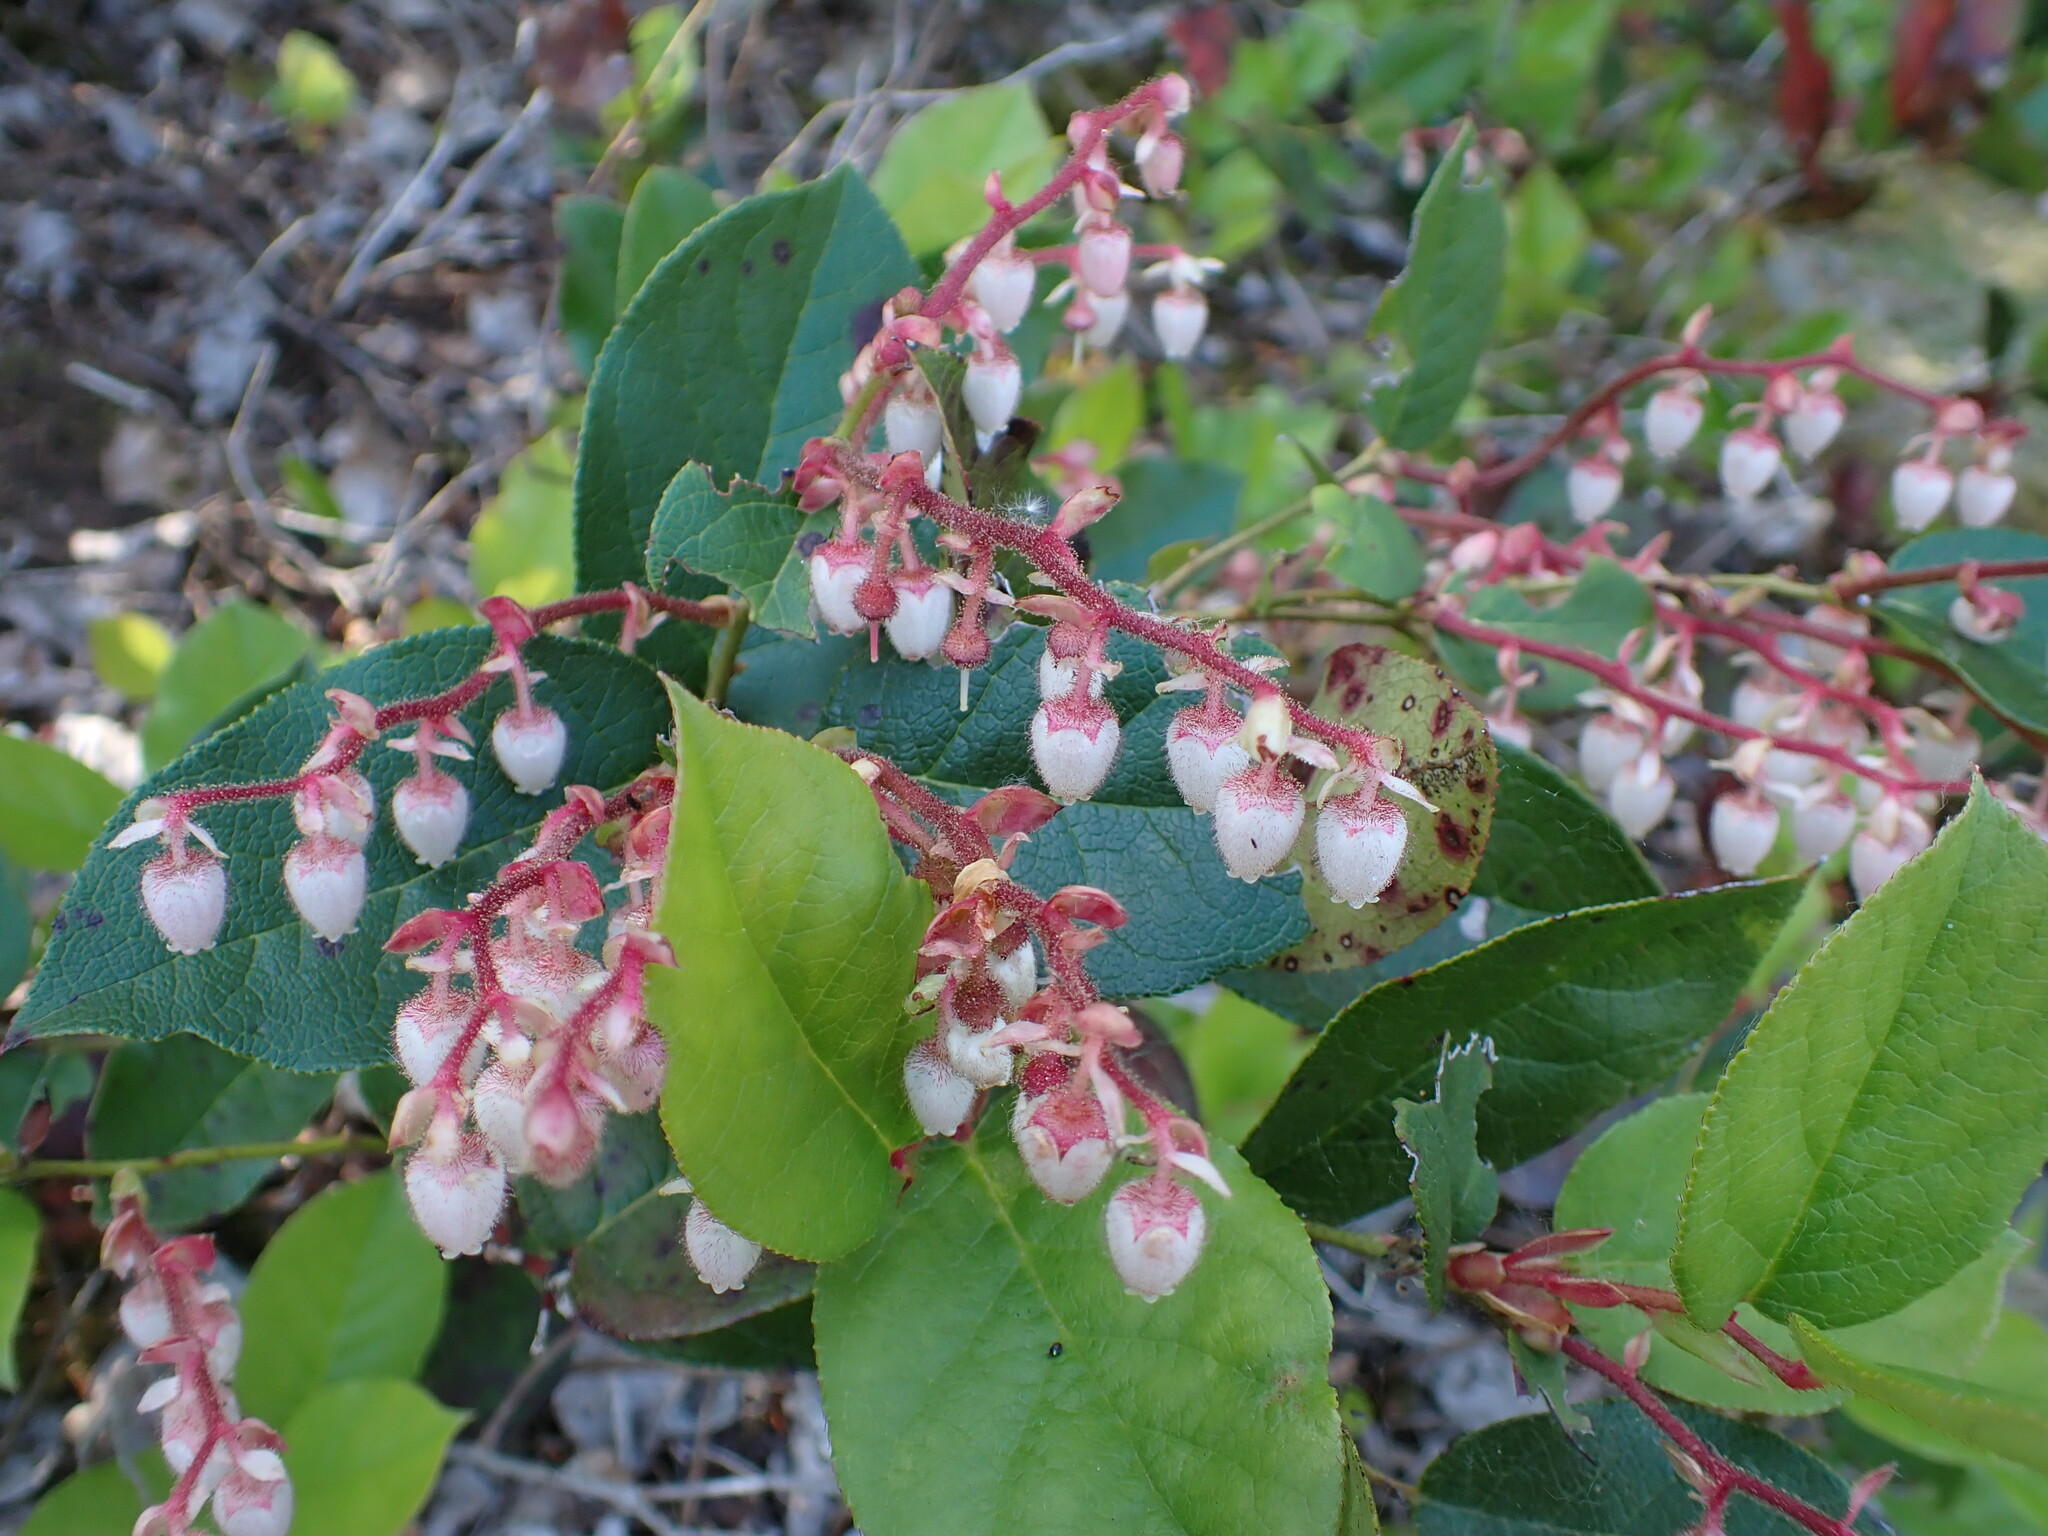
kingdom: Plantae
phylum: Tracheophyta
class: Magnoliopsida
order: Ericales
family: Ericaceae
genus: Gaultheria
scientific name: Gaultheria shallon
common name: Shallon
